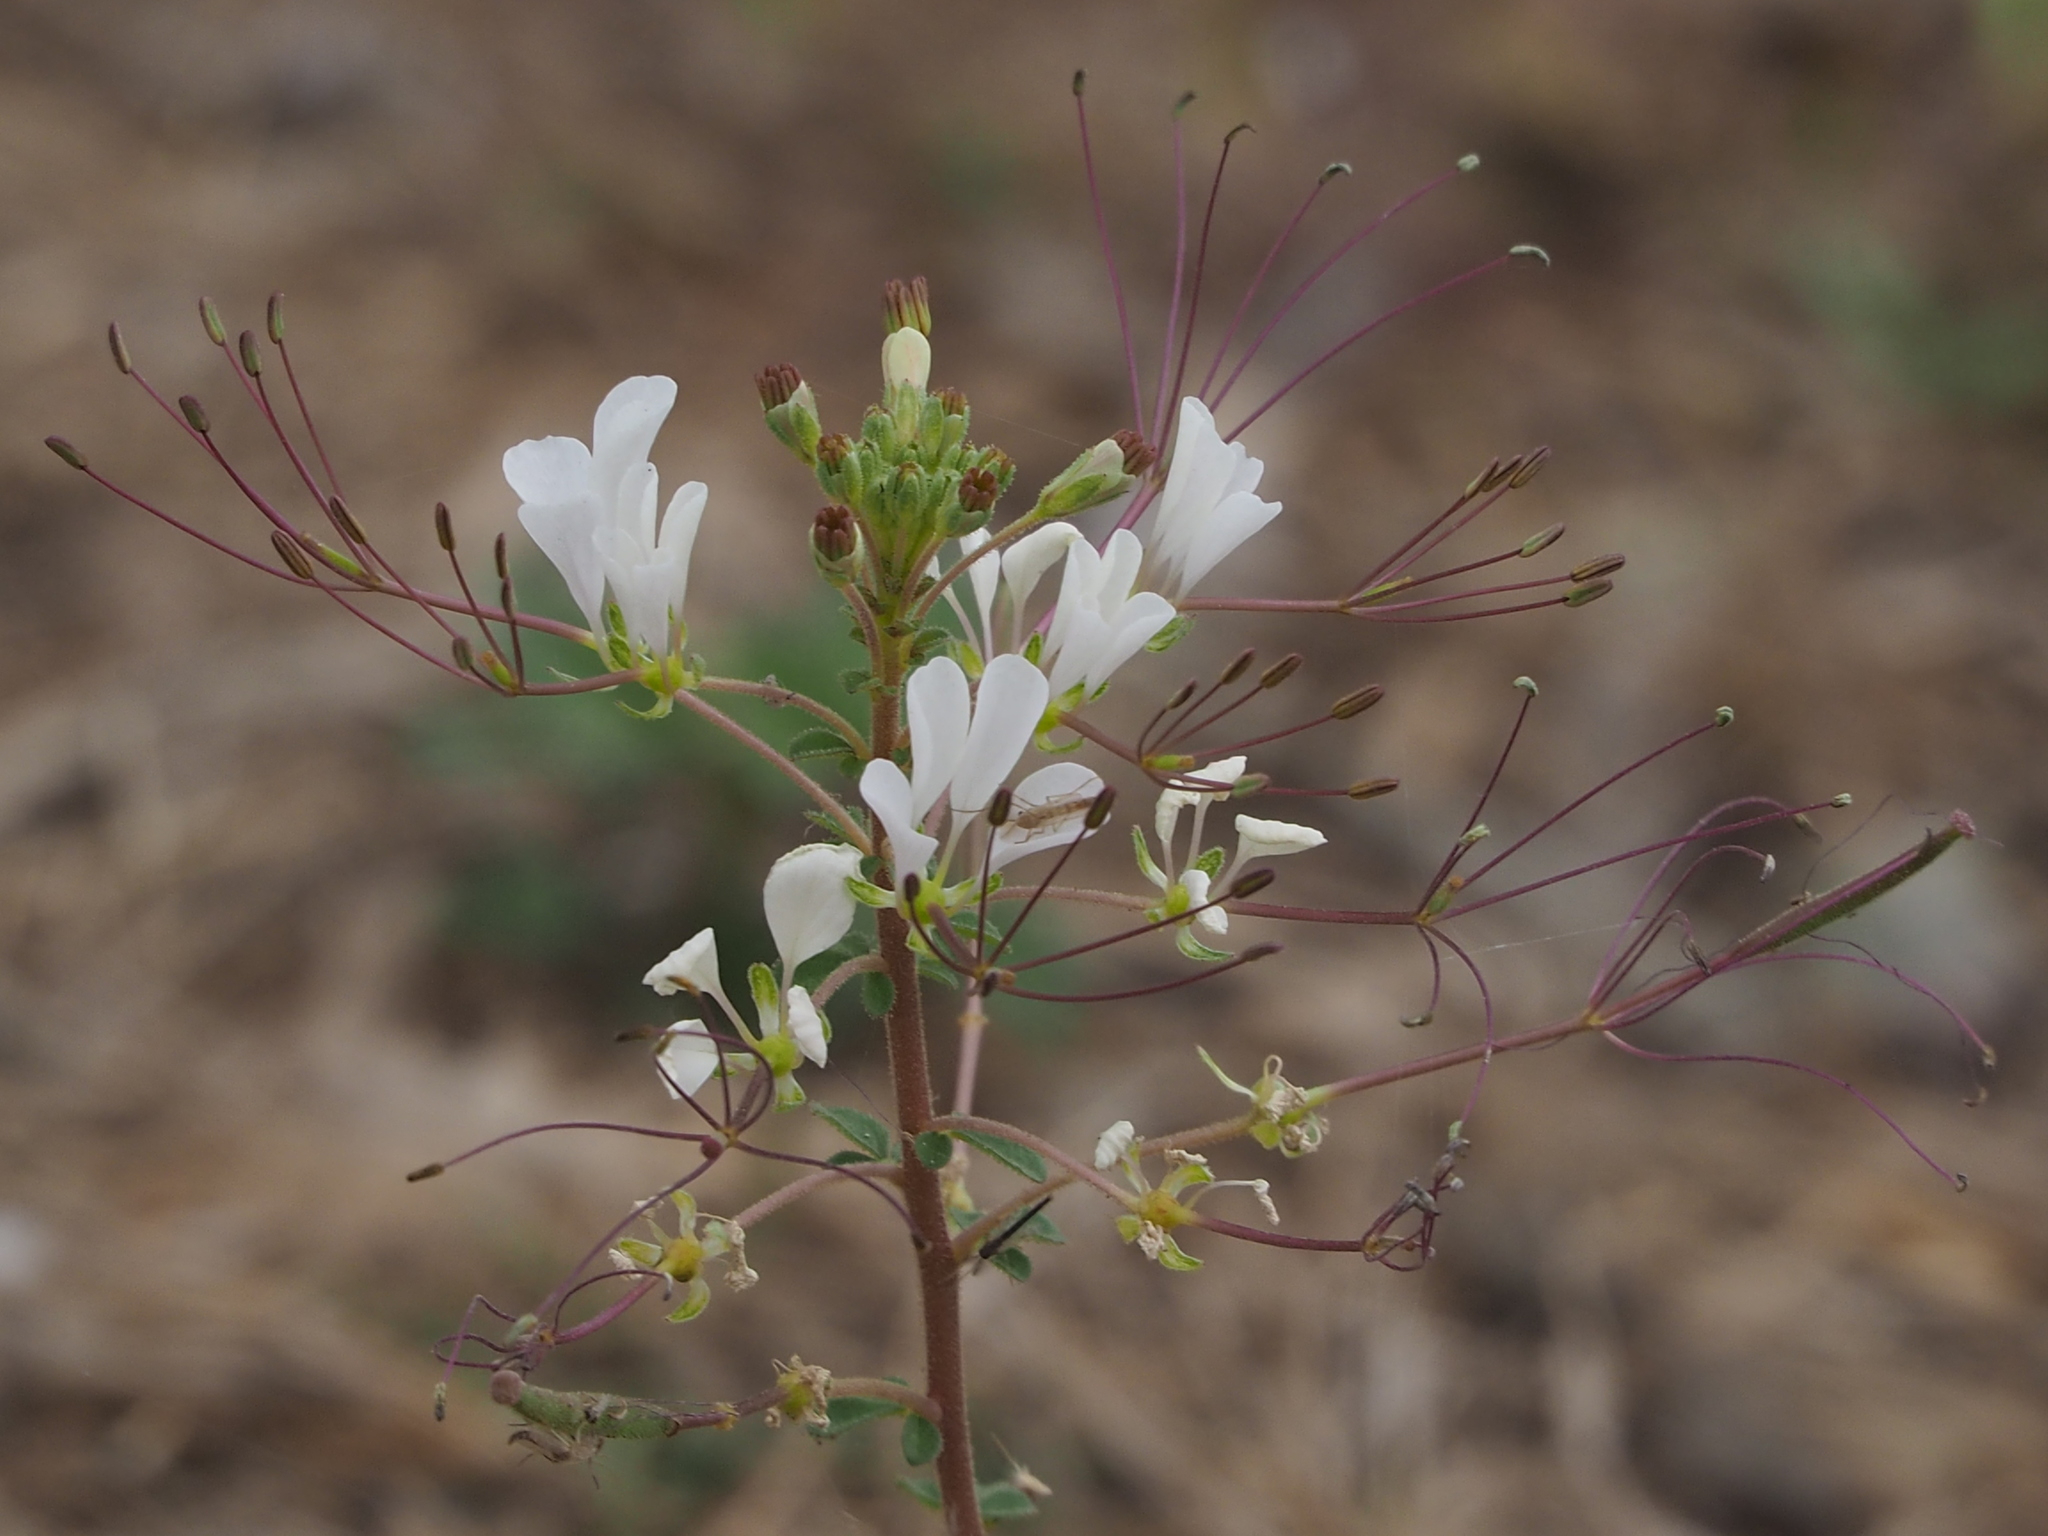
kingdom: Plantae
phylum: Tracheophyta
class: Magnoliopsida
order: Brassicales
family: Cleomaceae
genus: Gynandropsis
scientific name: Gynandropsis gynandra
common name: Spiderwisp
